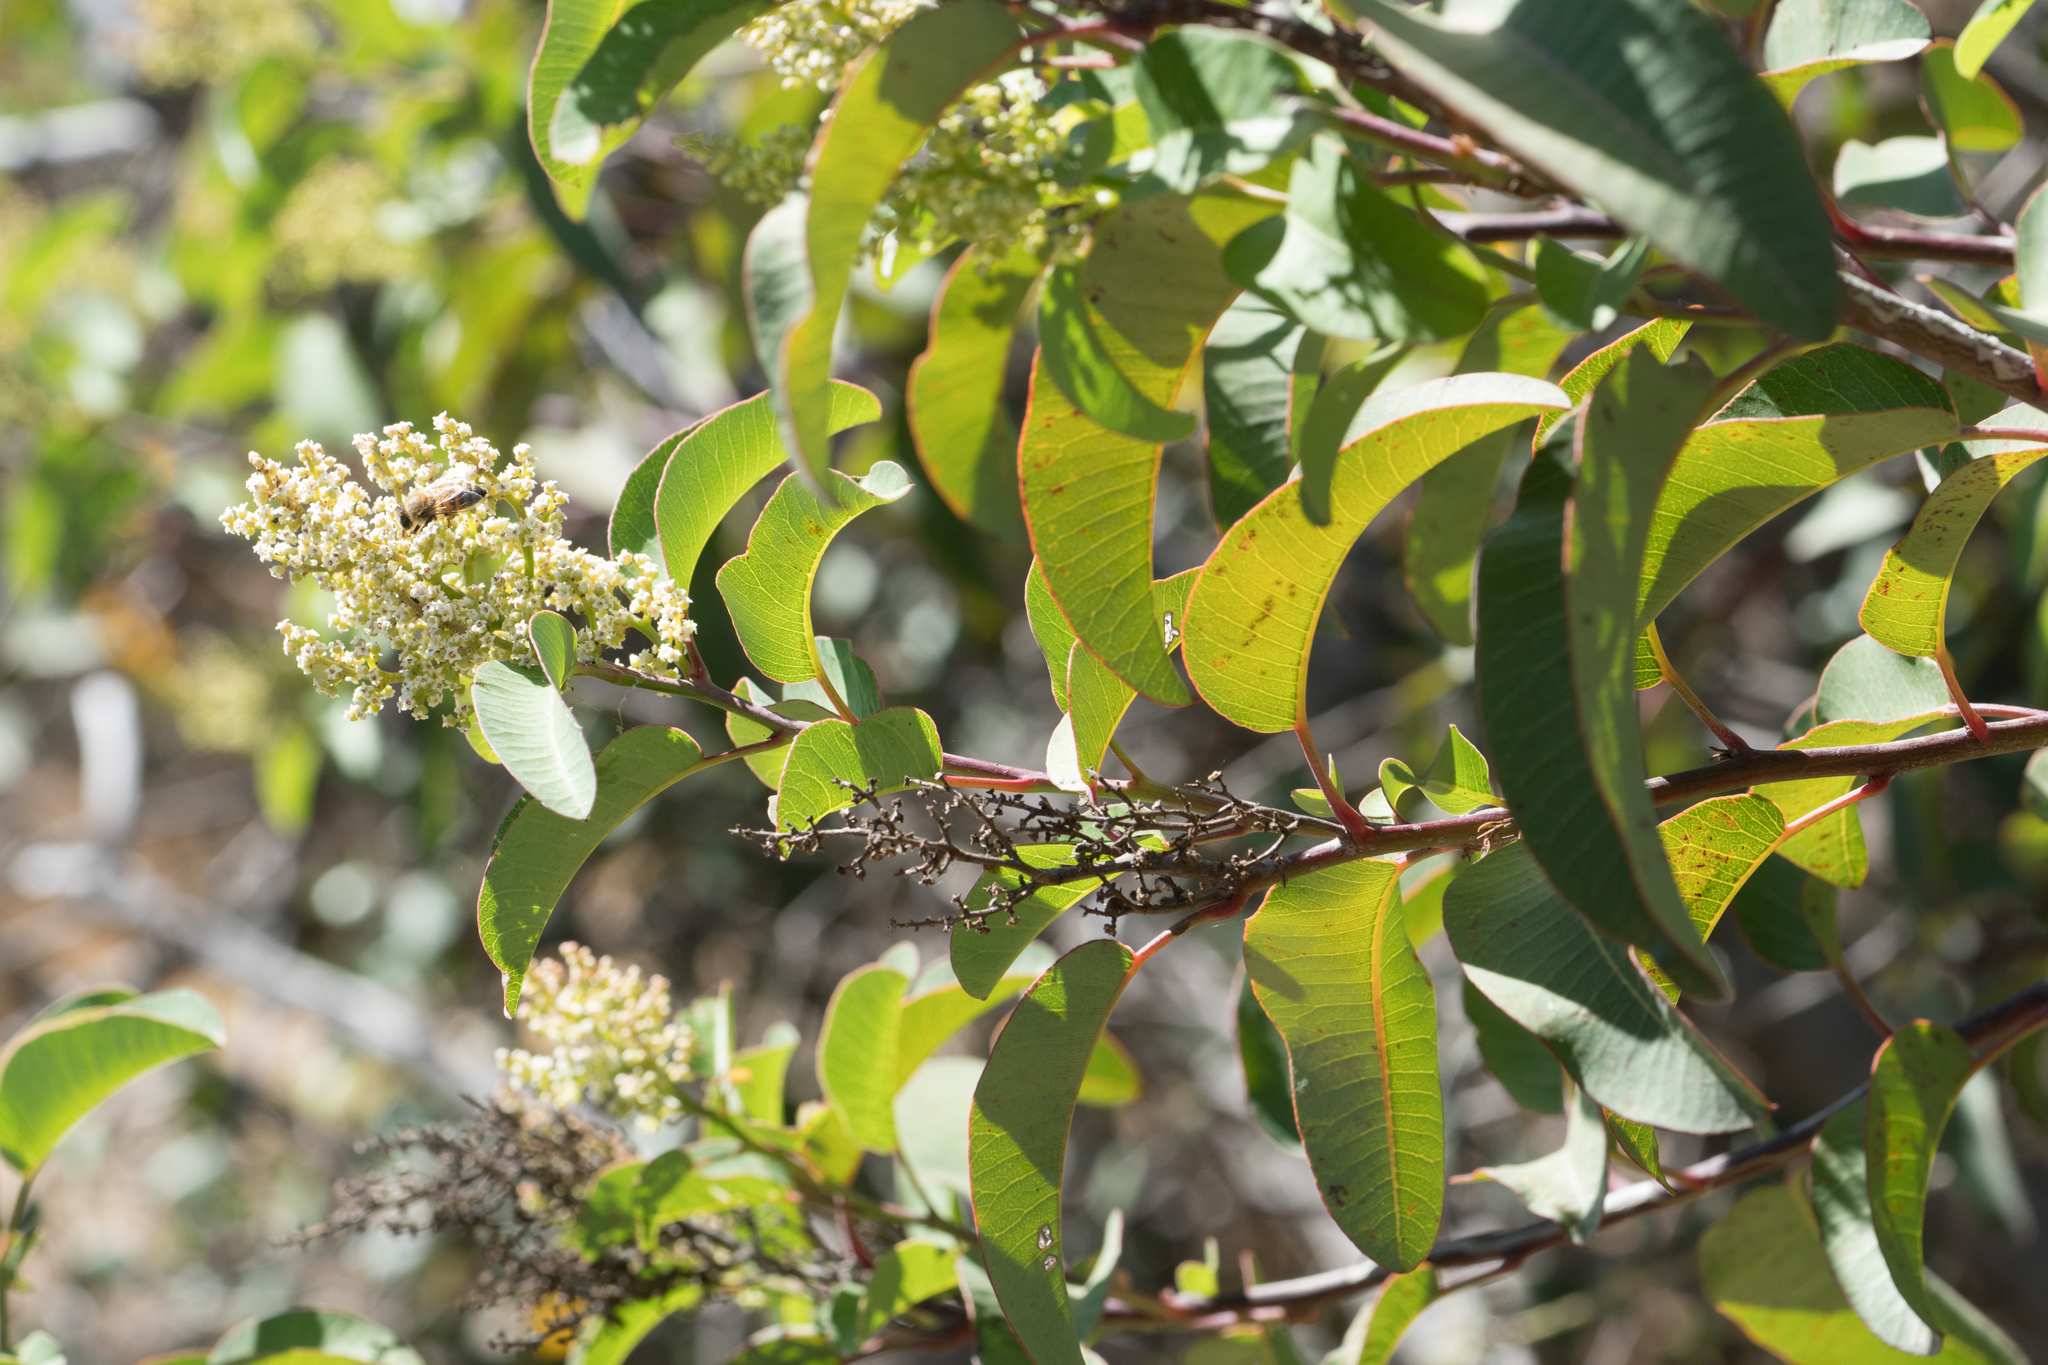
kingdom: Plantae
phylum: Tracheophyta
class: Magnoliopsida
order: Sapindales
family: Anacardiaceae
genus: Malosma
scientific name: Malosma laurina
